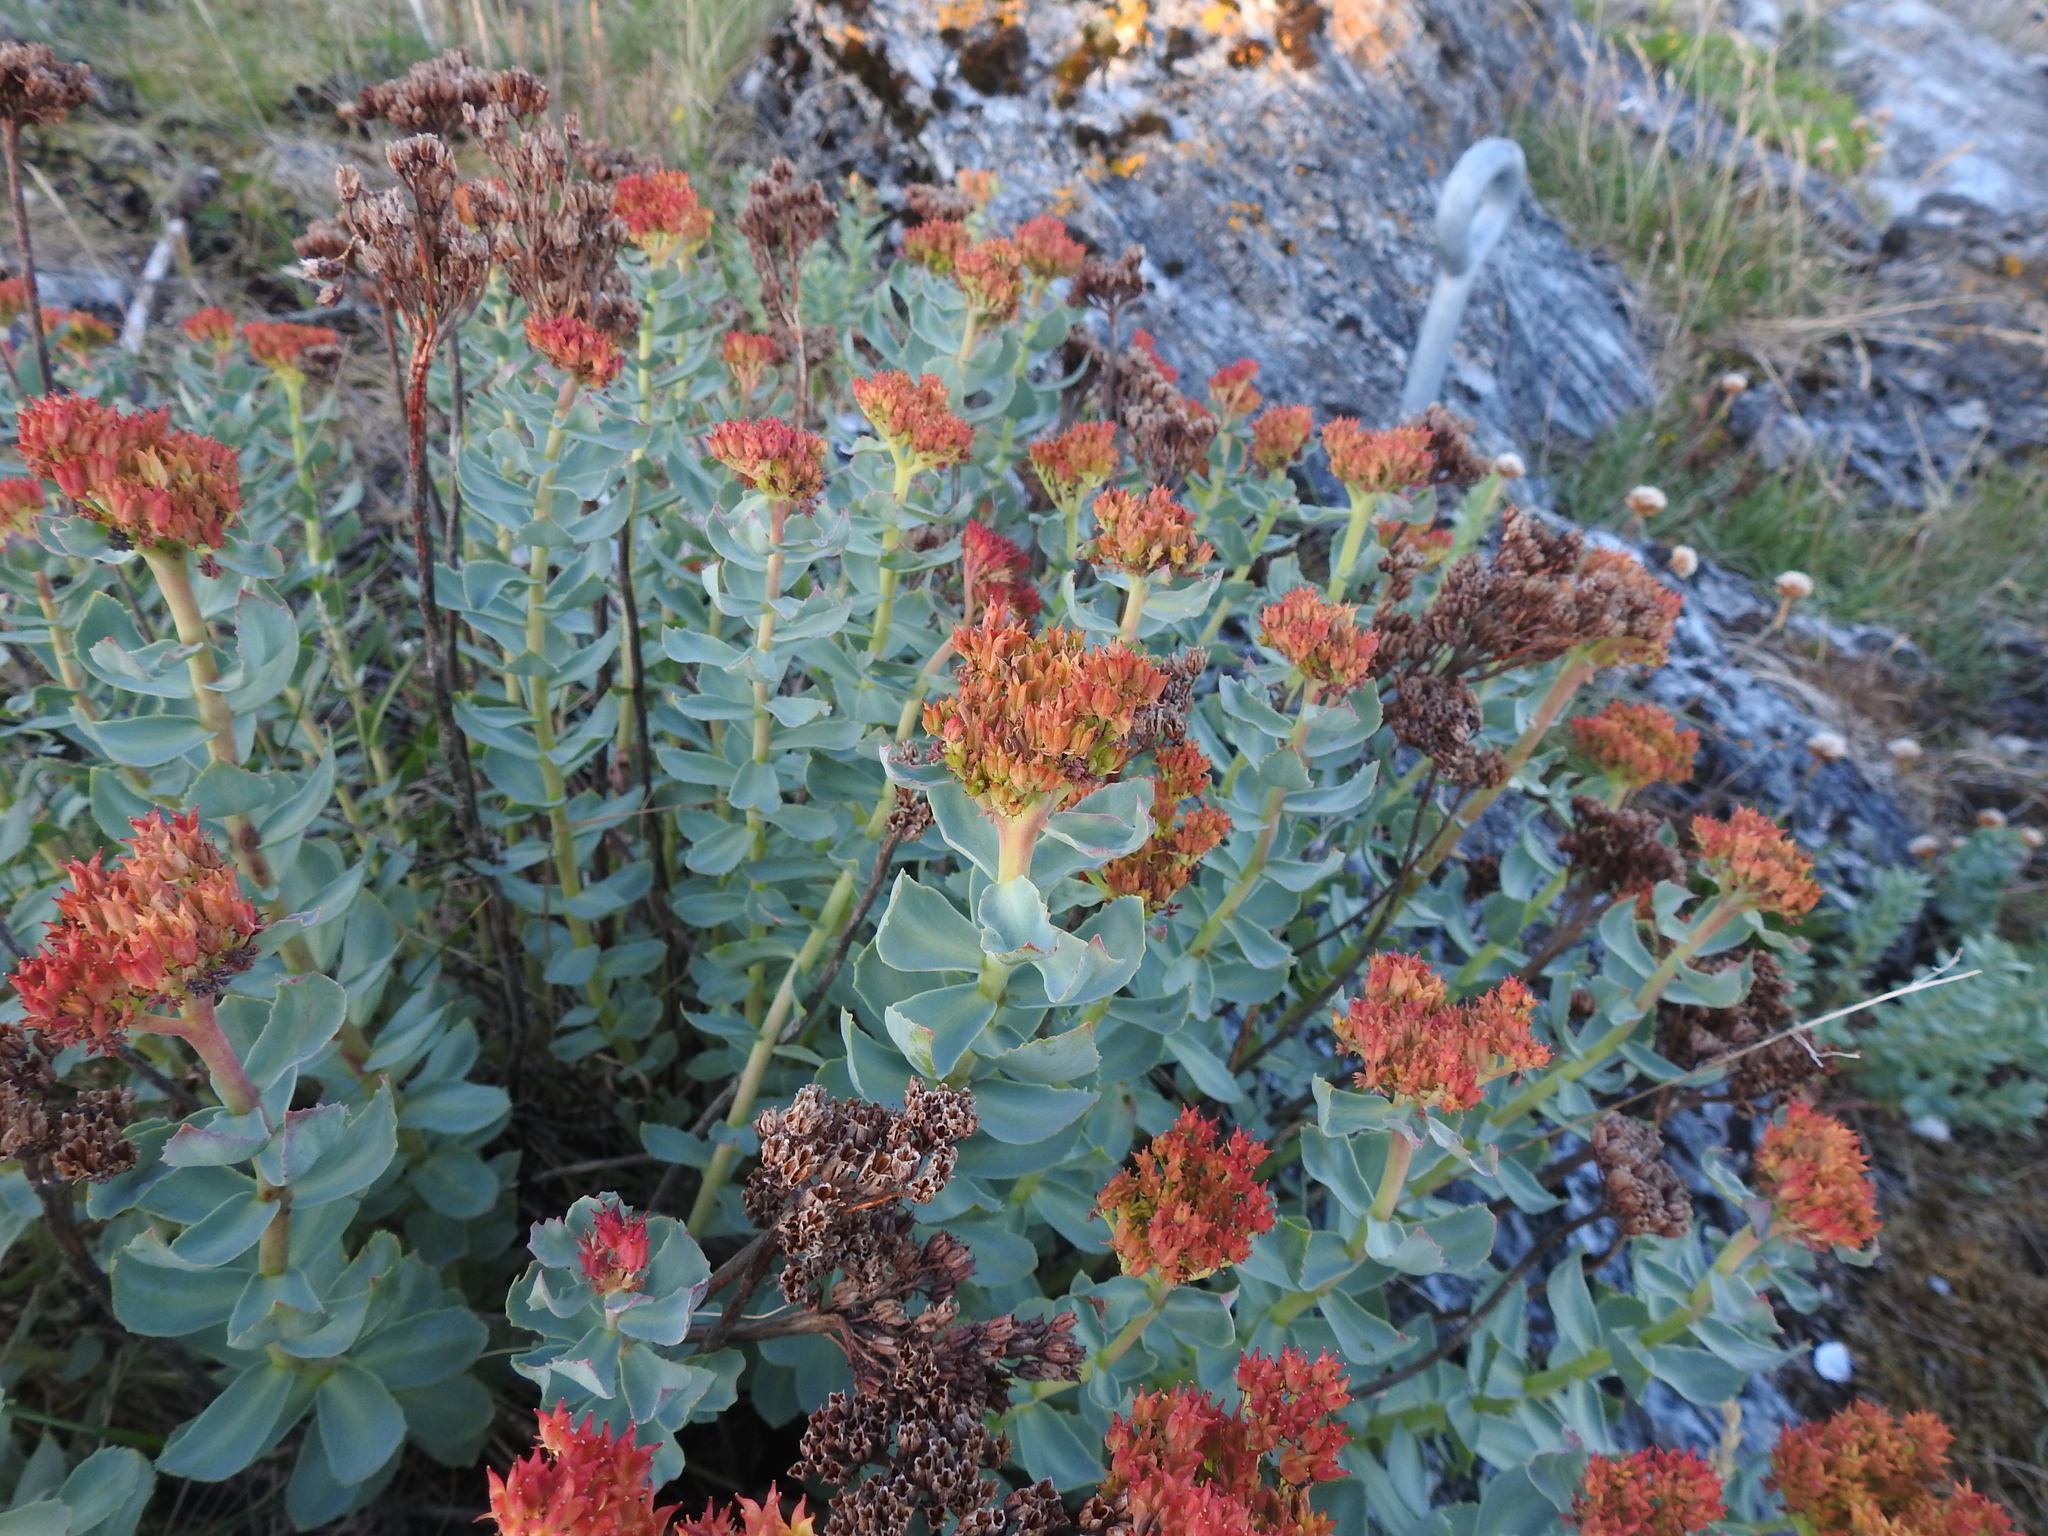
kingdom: Plantae
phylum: Tracheophyta
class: Magnoliopsida
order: Saxifragales
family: Crassulaceae
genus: Rhodiola
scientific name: Rhodiola rosea
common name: Roseroot
